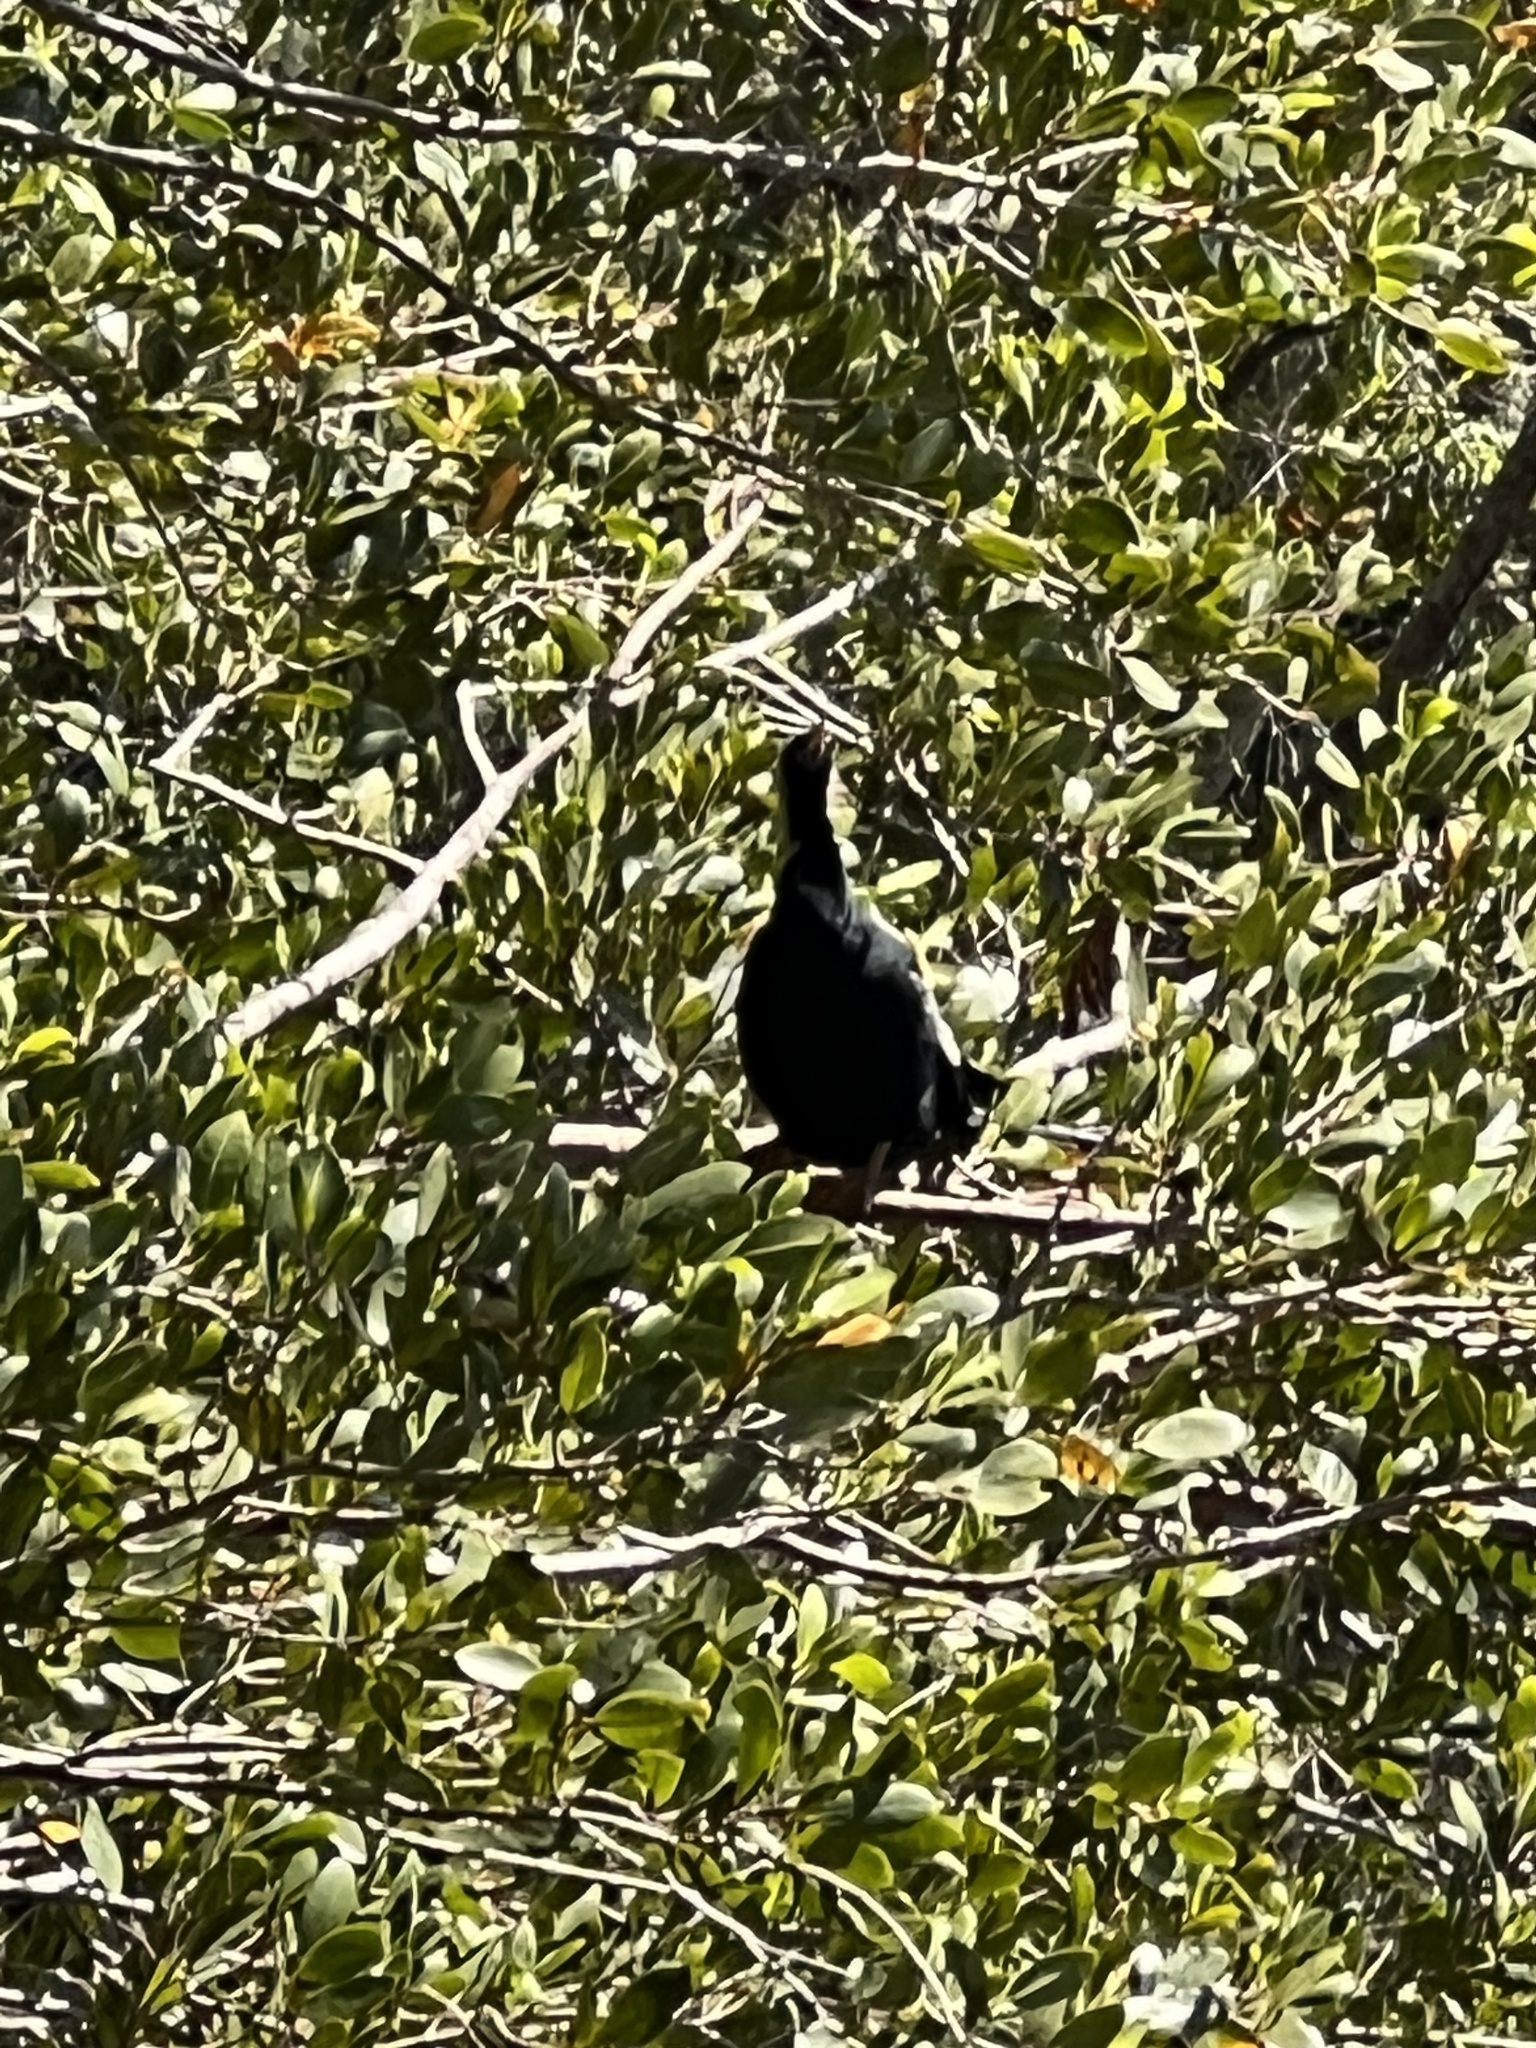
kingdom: Animalia
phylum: Chordata
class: Aves
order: Suliformes
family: Anhingidae
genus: Anhinga
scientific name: Anhinga anhinga
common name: Anhinga
